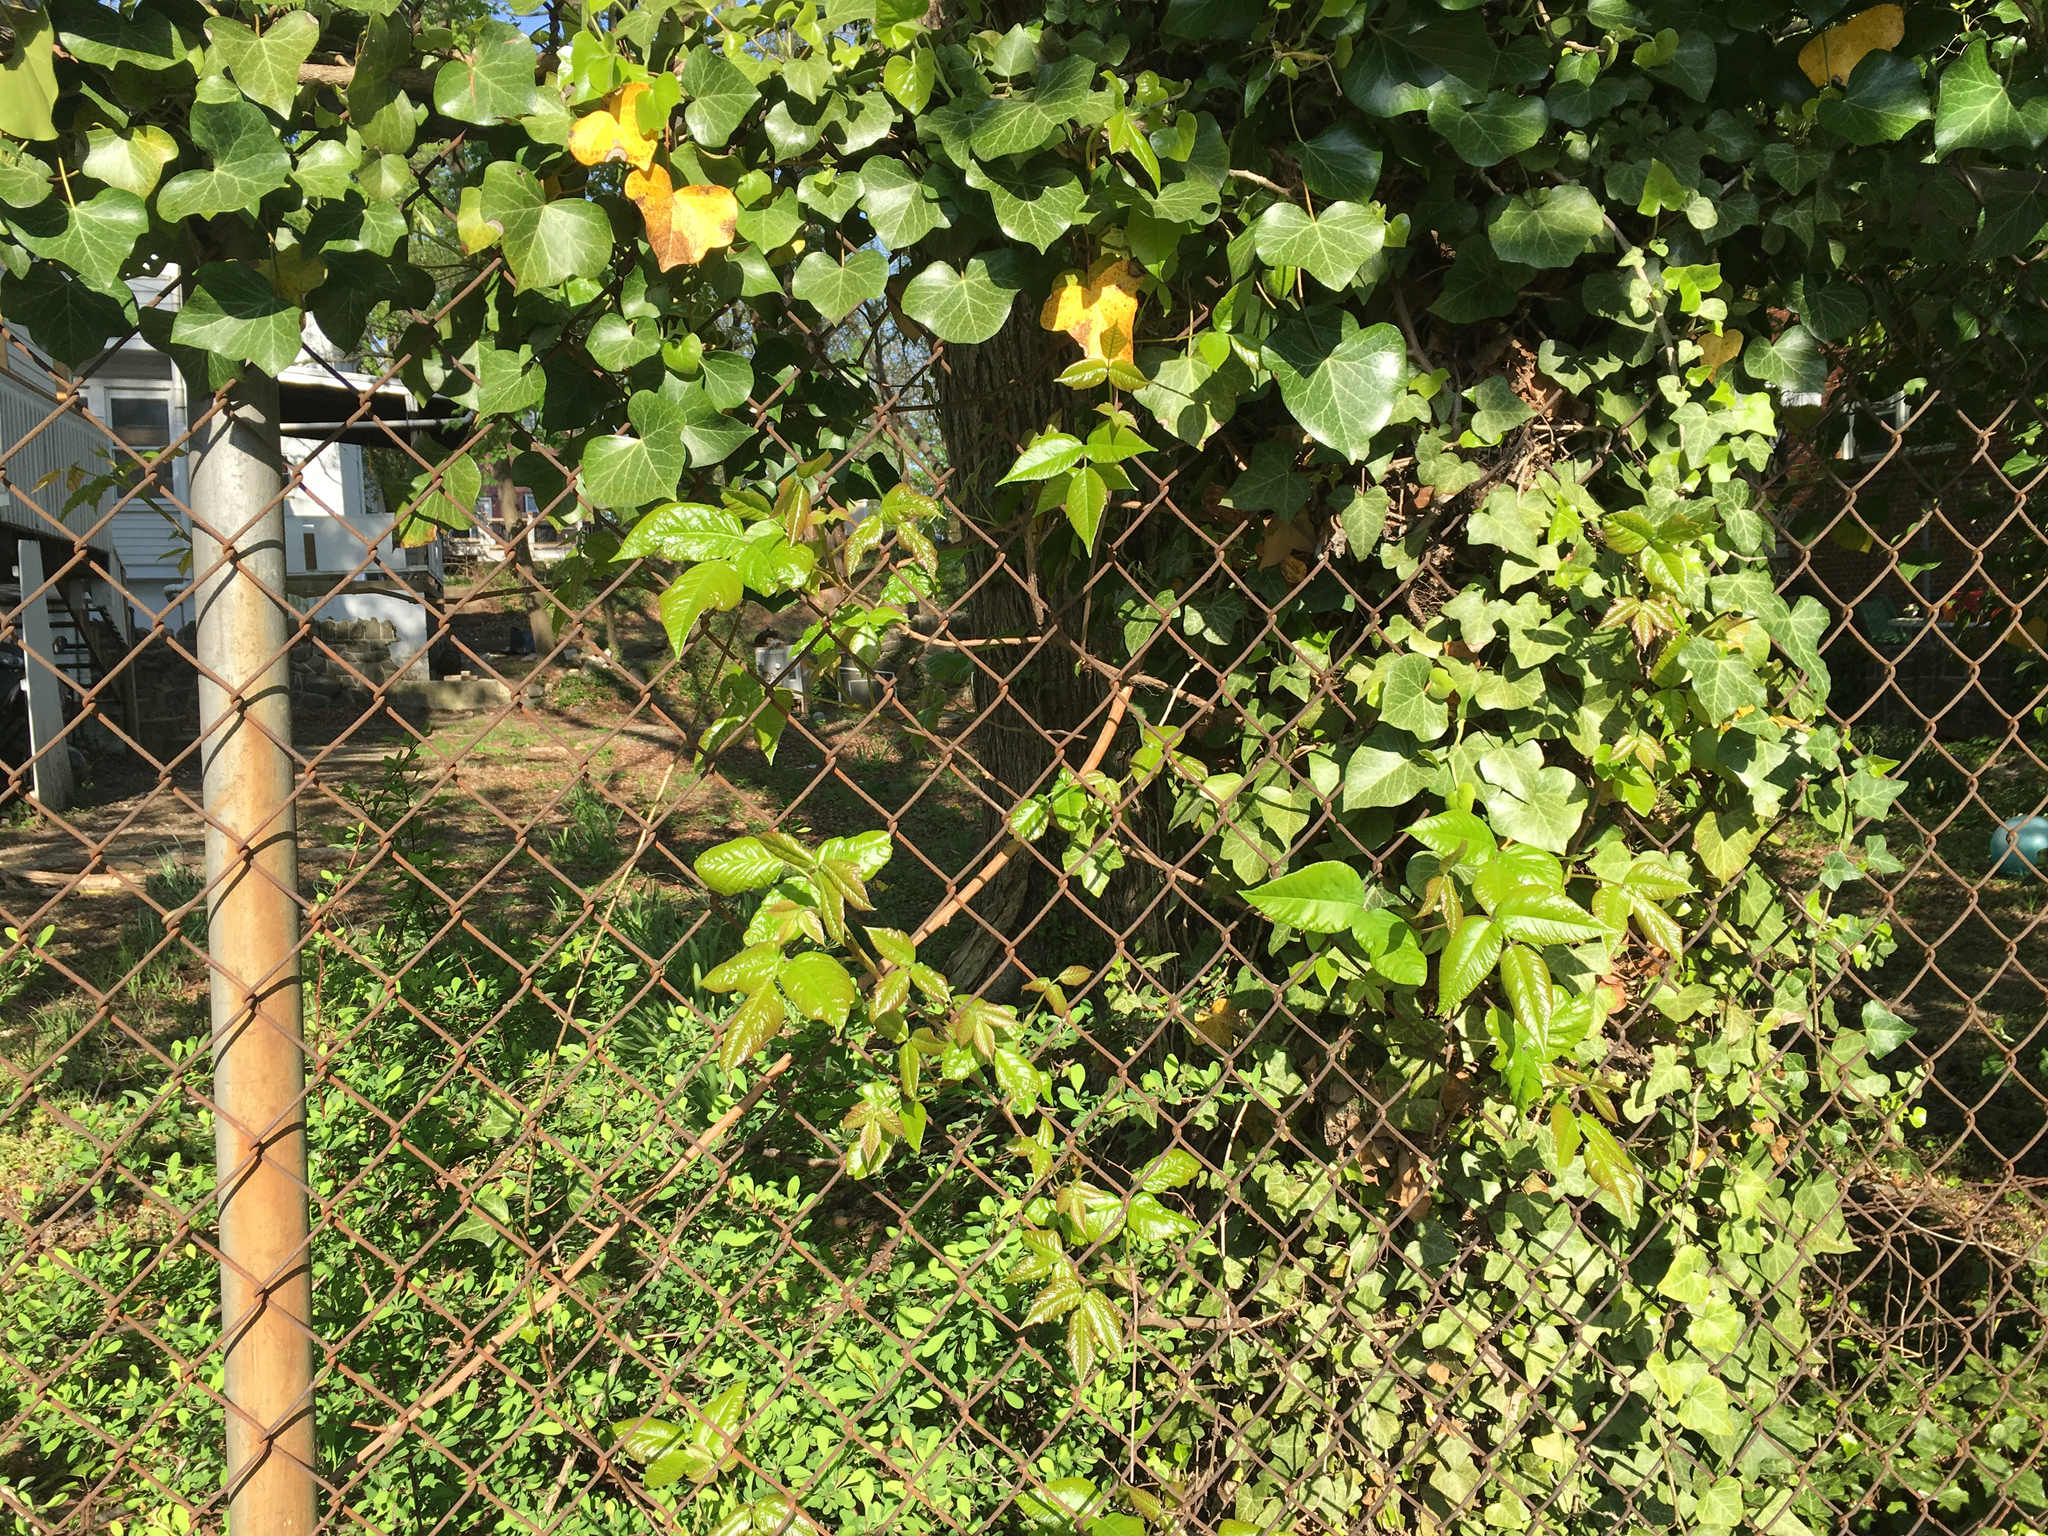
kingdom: Plantae
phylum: Tracheophyta
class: Magnoliopsida
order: Sapindales
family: Anacardiaceae
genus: Toxicodendron
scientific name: Toxicodendron radicans
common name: Poison ivy
